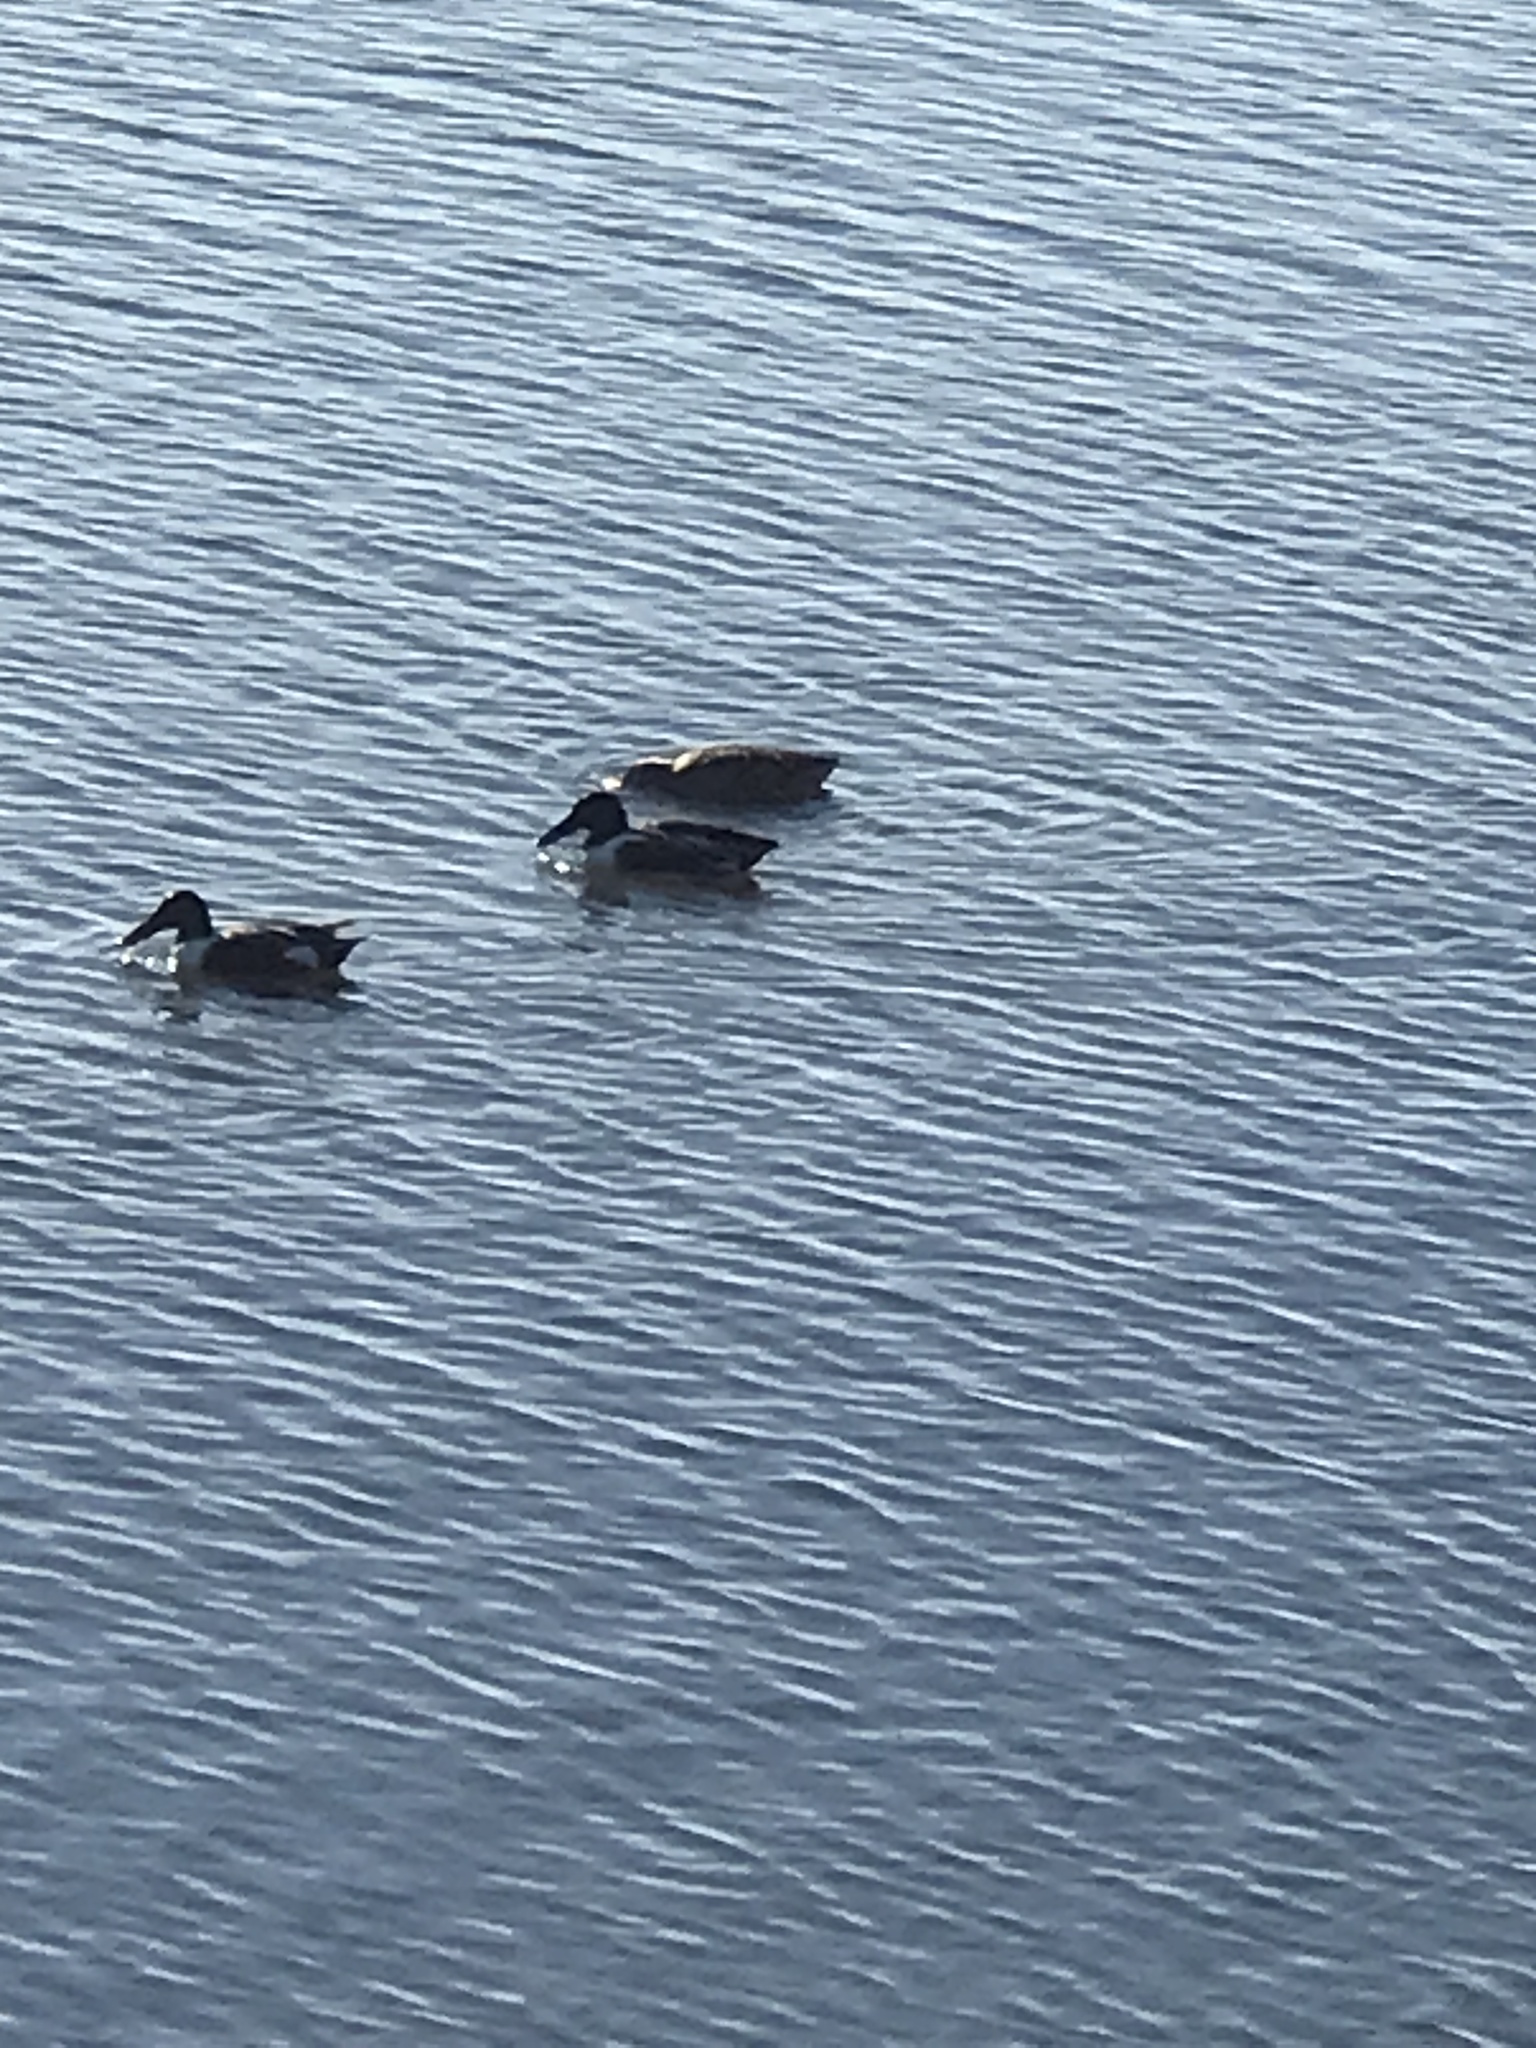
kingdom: Animalia
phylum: Chordata
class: Aves
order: Anseriformes
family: Anatidae
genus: Spatula
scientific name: Spatula clypeata
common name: Northern shoveler
